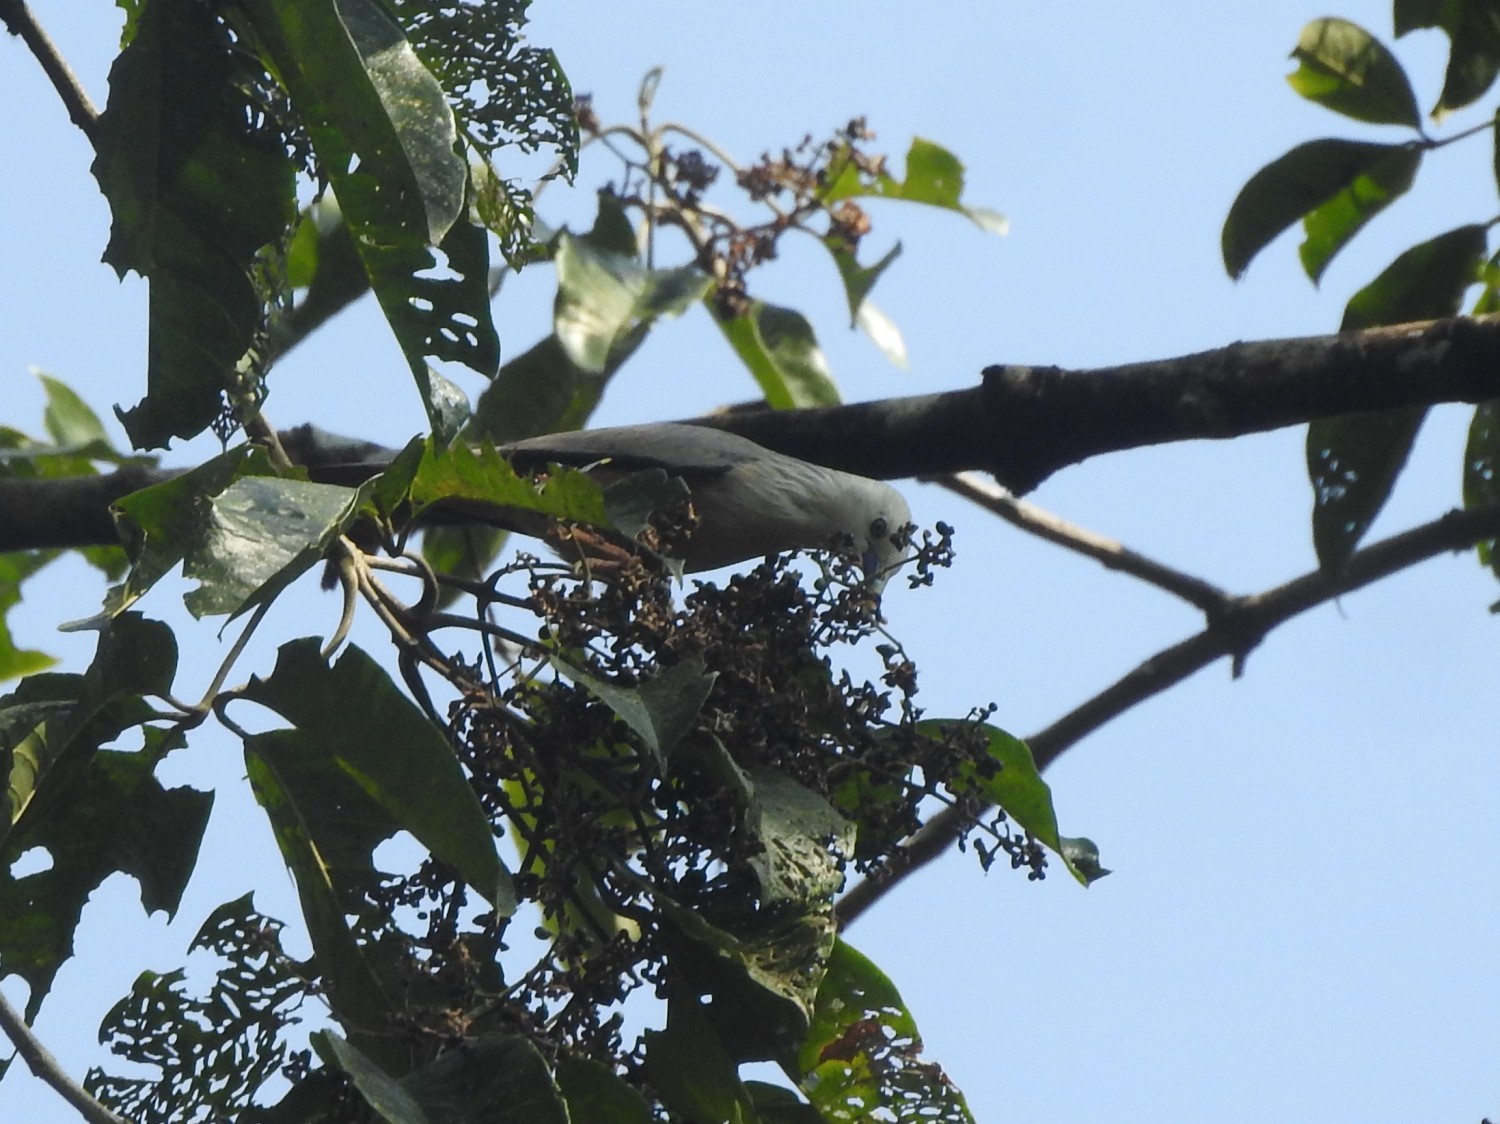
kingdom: Animalia
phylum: Chordata
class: Aves
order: Passeriformes
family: Sturnidae
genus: Sturnia
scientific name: Sturnia blythii
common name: Malabar starling
